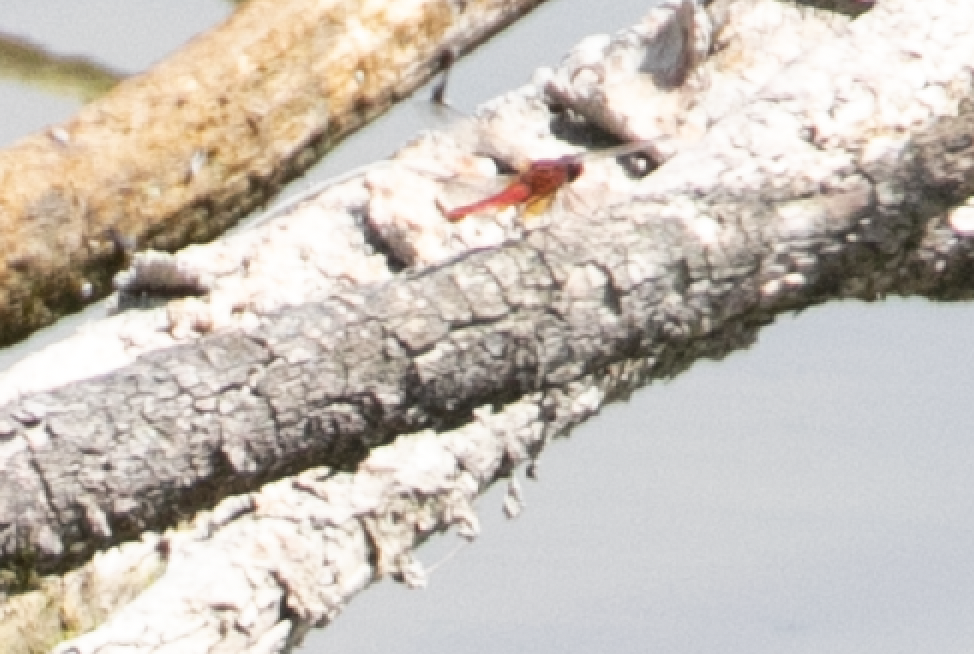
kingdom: Animalia
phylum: Arthropoda
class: Insecta
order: Odonata
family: Libellulidae
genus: Crocothemis
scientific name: Crocothemis erythraea
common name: Scarlet dragonfly
